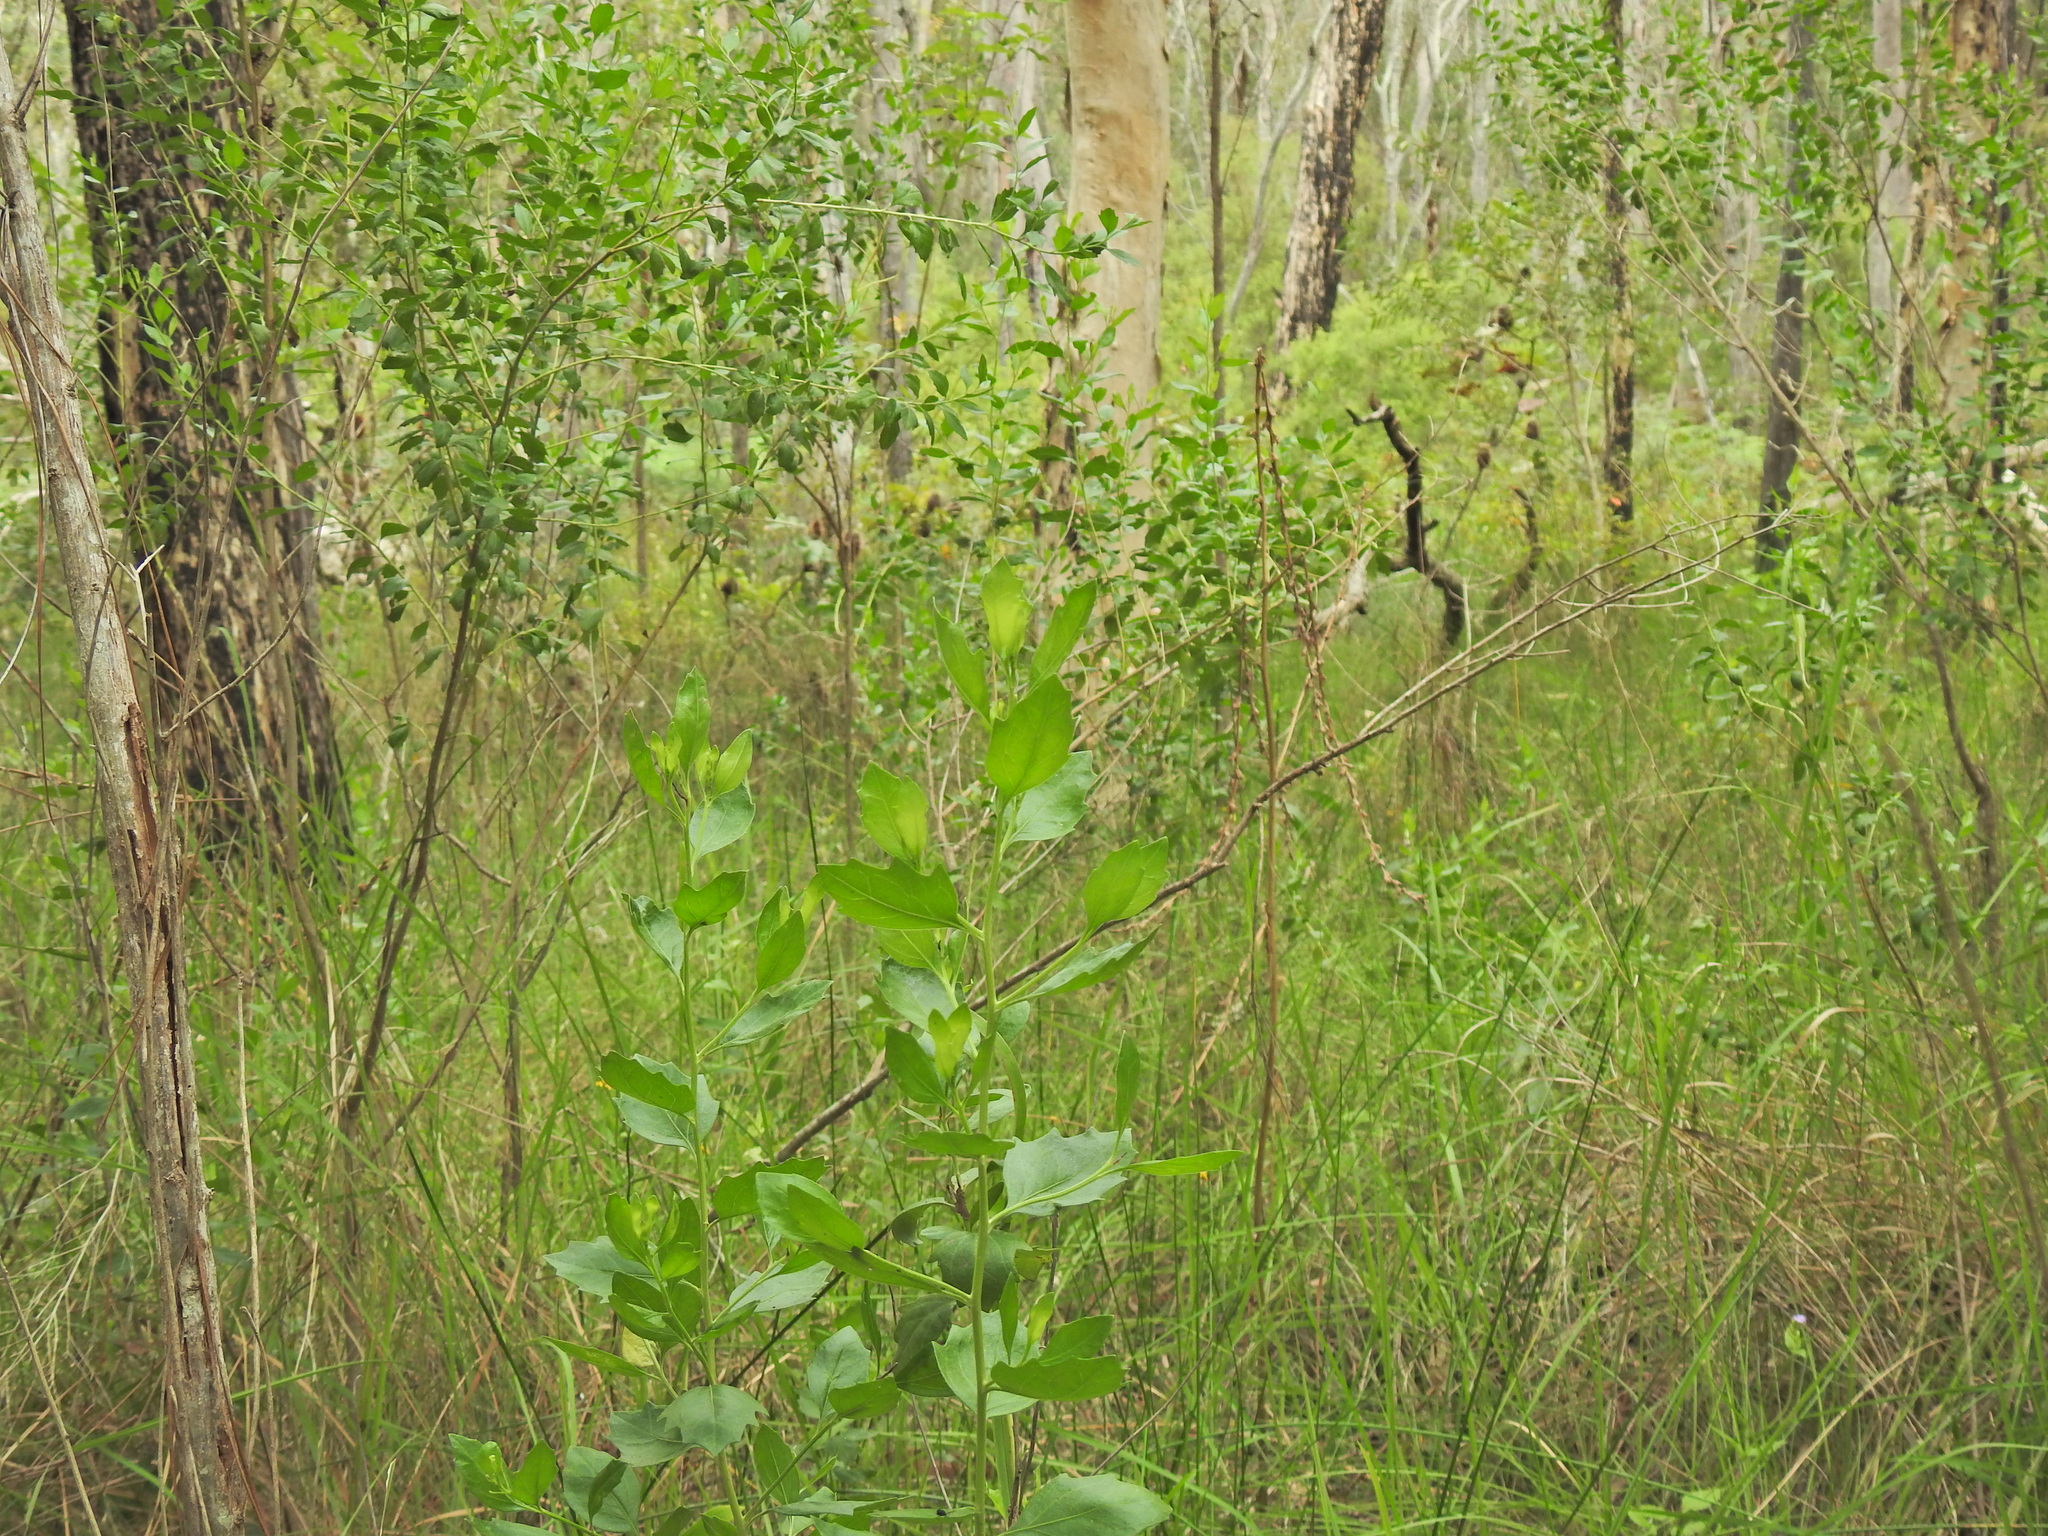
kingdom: Plantae
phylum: Tracheophyta
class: Magnoliopsida
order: Asterales
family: Asteraceae
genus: Baccharis
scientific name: Baccharis halimifolia
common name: Eastern baccharis
